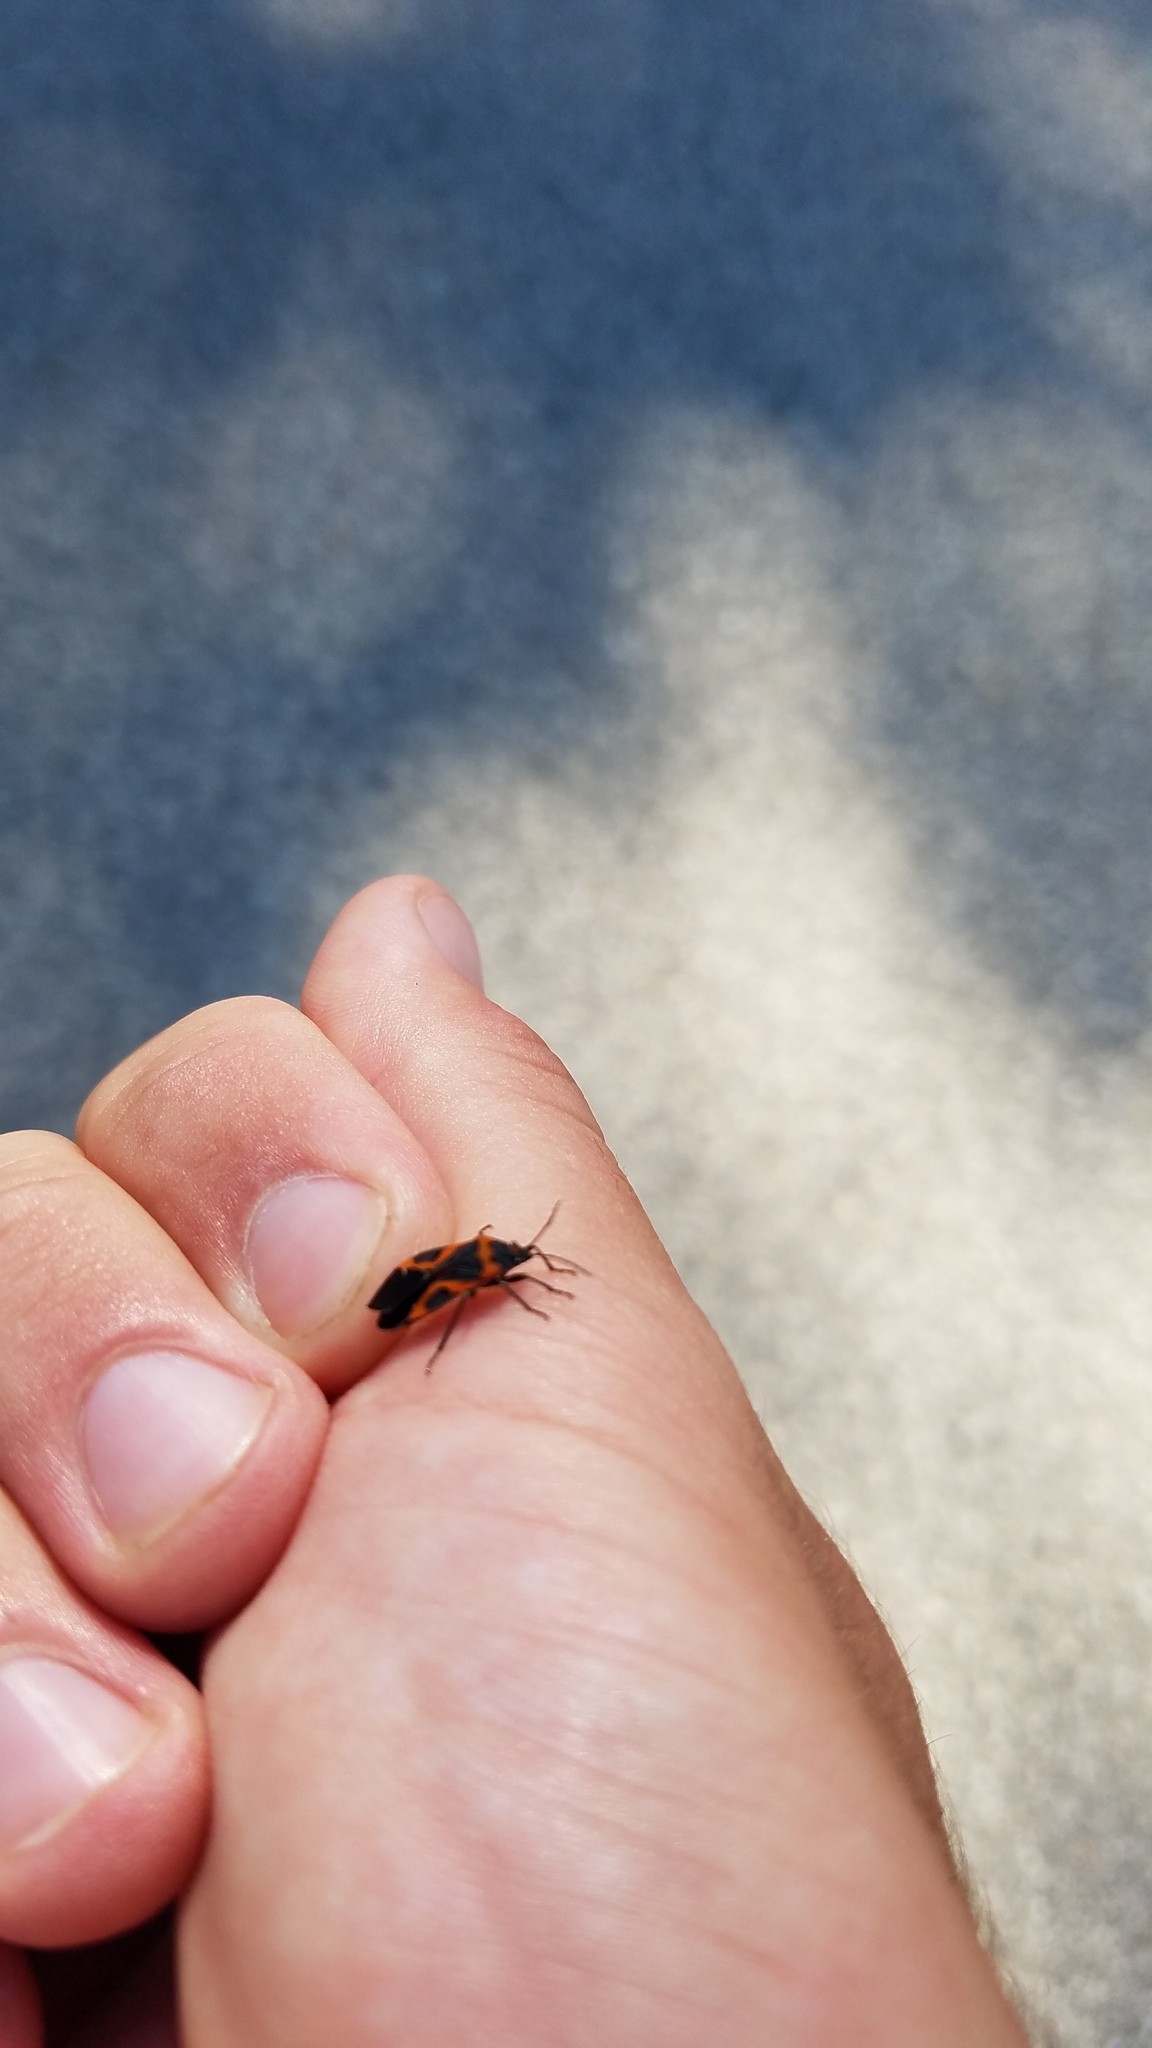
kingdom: Animalia
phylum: Arthropoda
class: Insecta
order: Hemiptera
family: Lygaeidae
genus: Lygaeus
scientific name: Lygaeus kalmii
